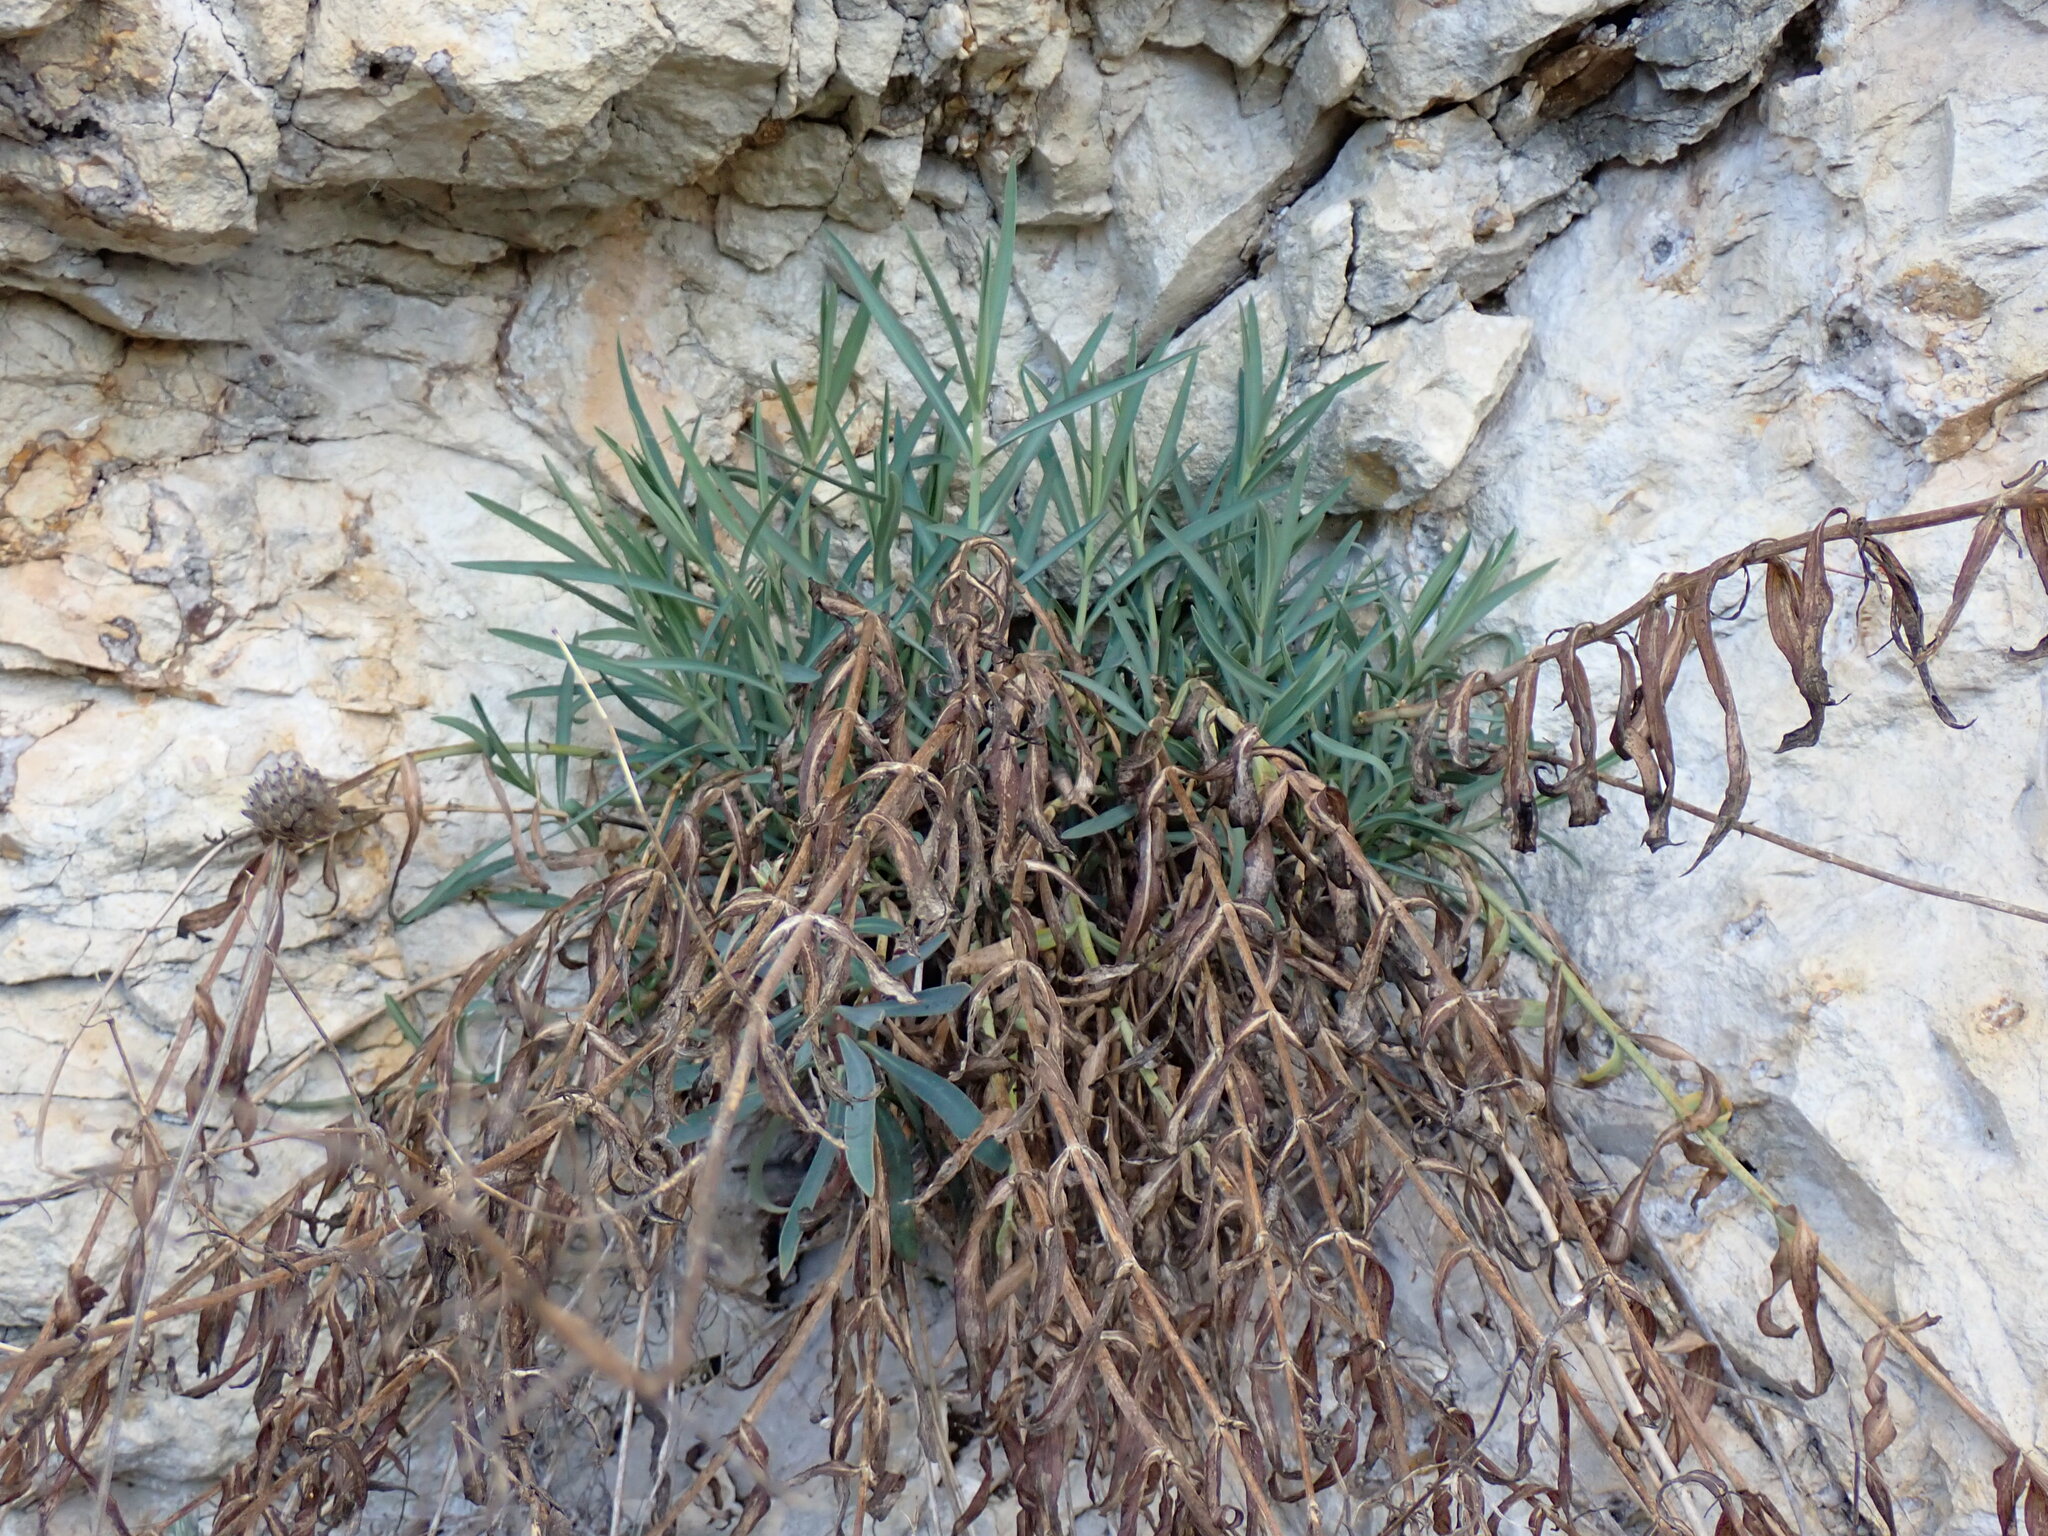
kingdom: Plantae
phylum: Tracheophyta
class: Magnoliopsida
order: Dipsacales
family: Caprifoliaceae
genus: Centranthus
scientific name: Centranthus lecoqii
